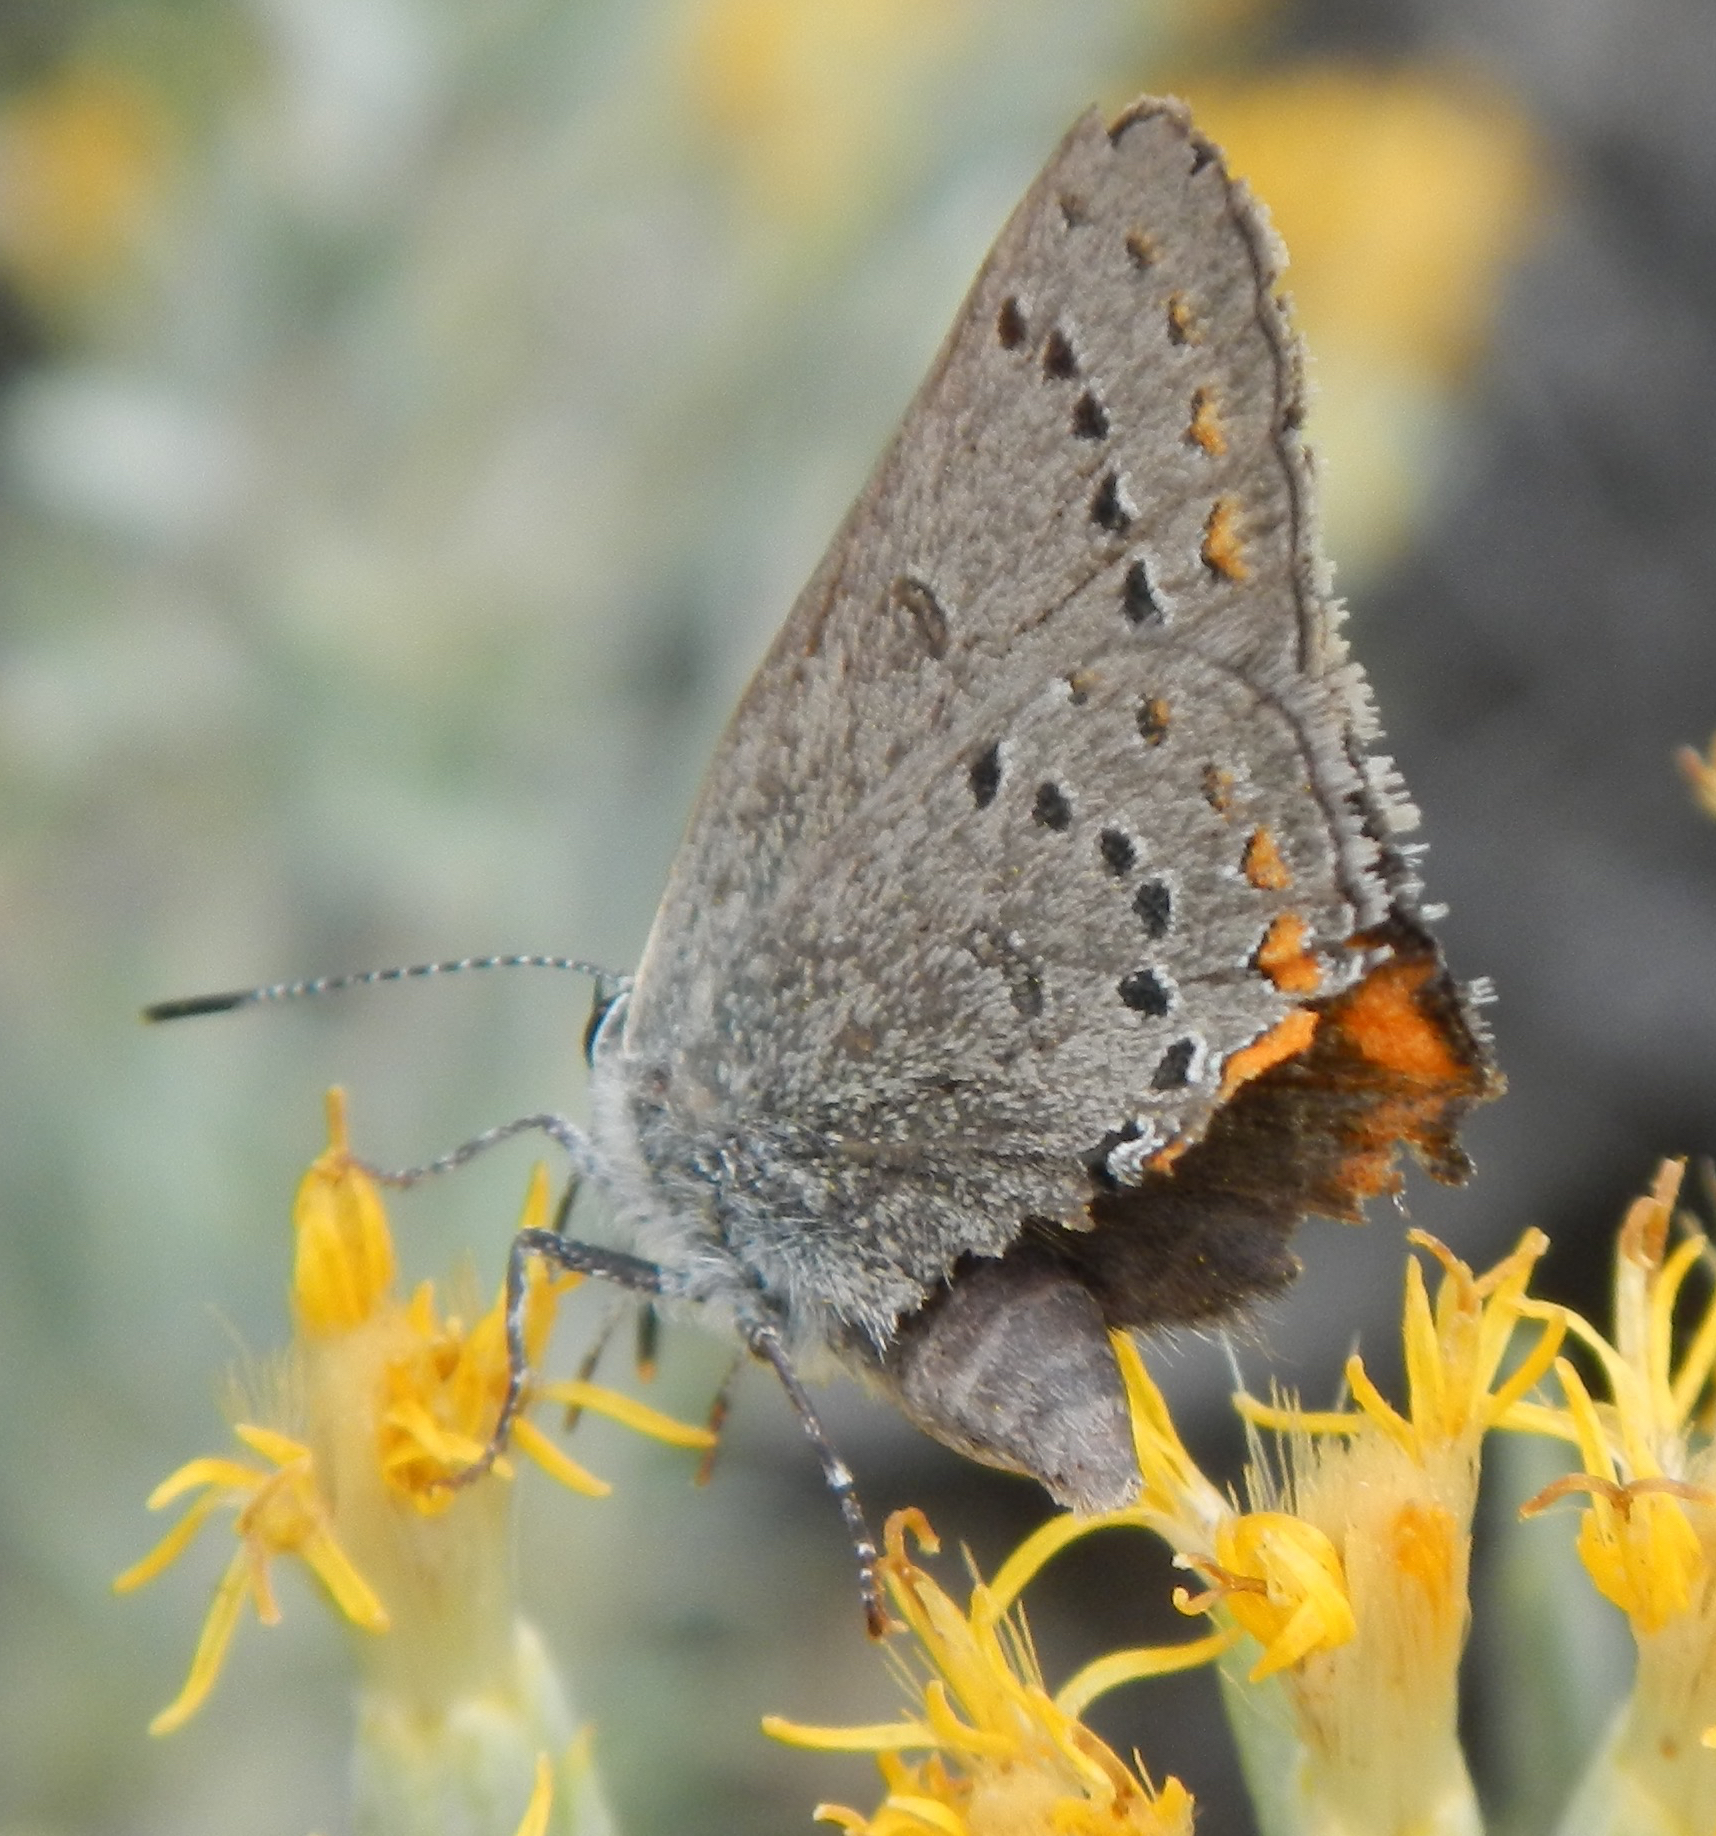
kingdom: Animalia
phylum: Arthropoda
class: Insecta
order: Lepidoptera
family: Lycaenidae
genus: Strymon
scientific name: Strymon acadica
